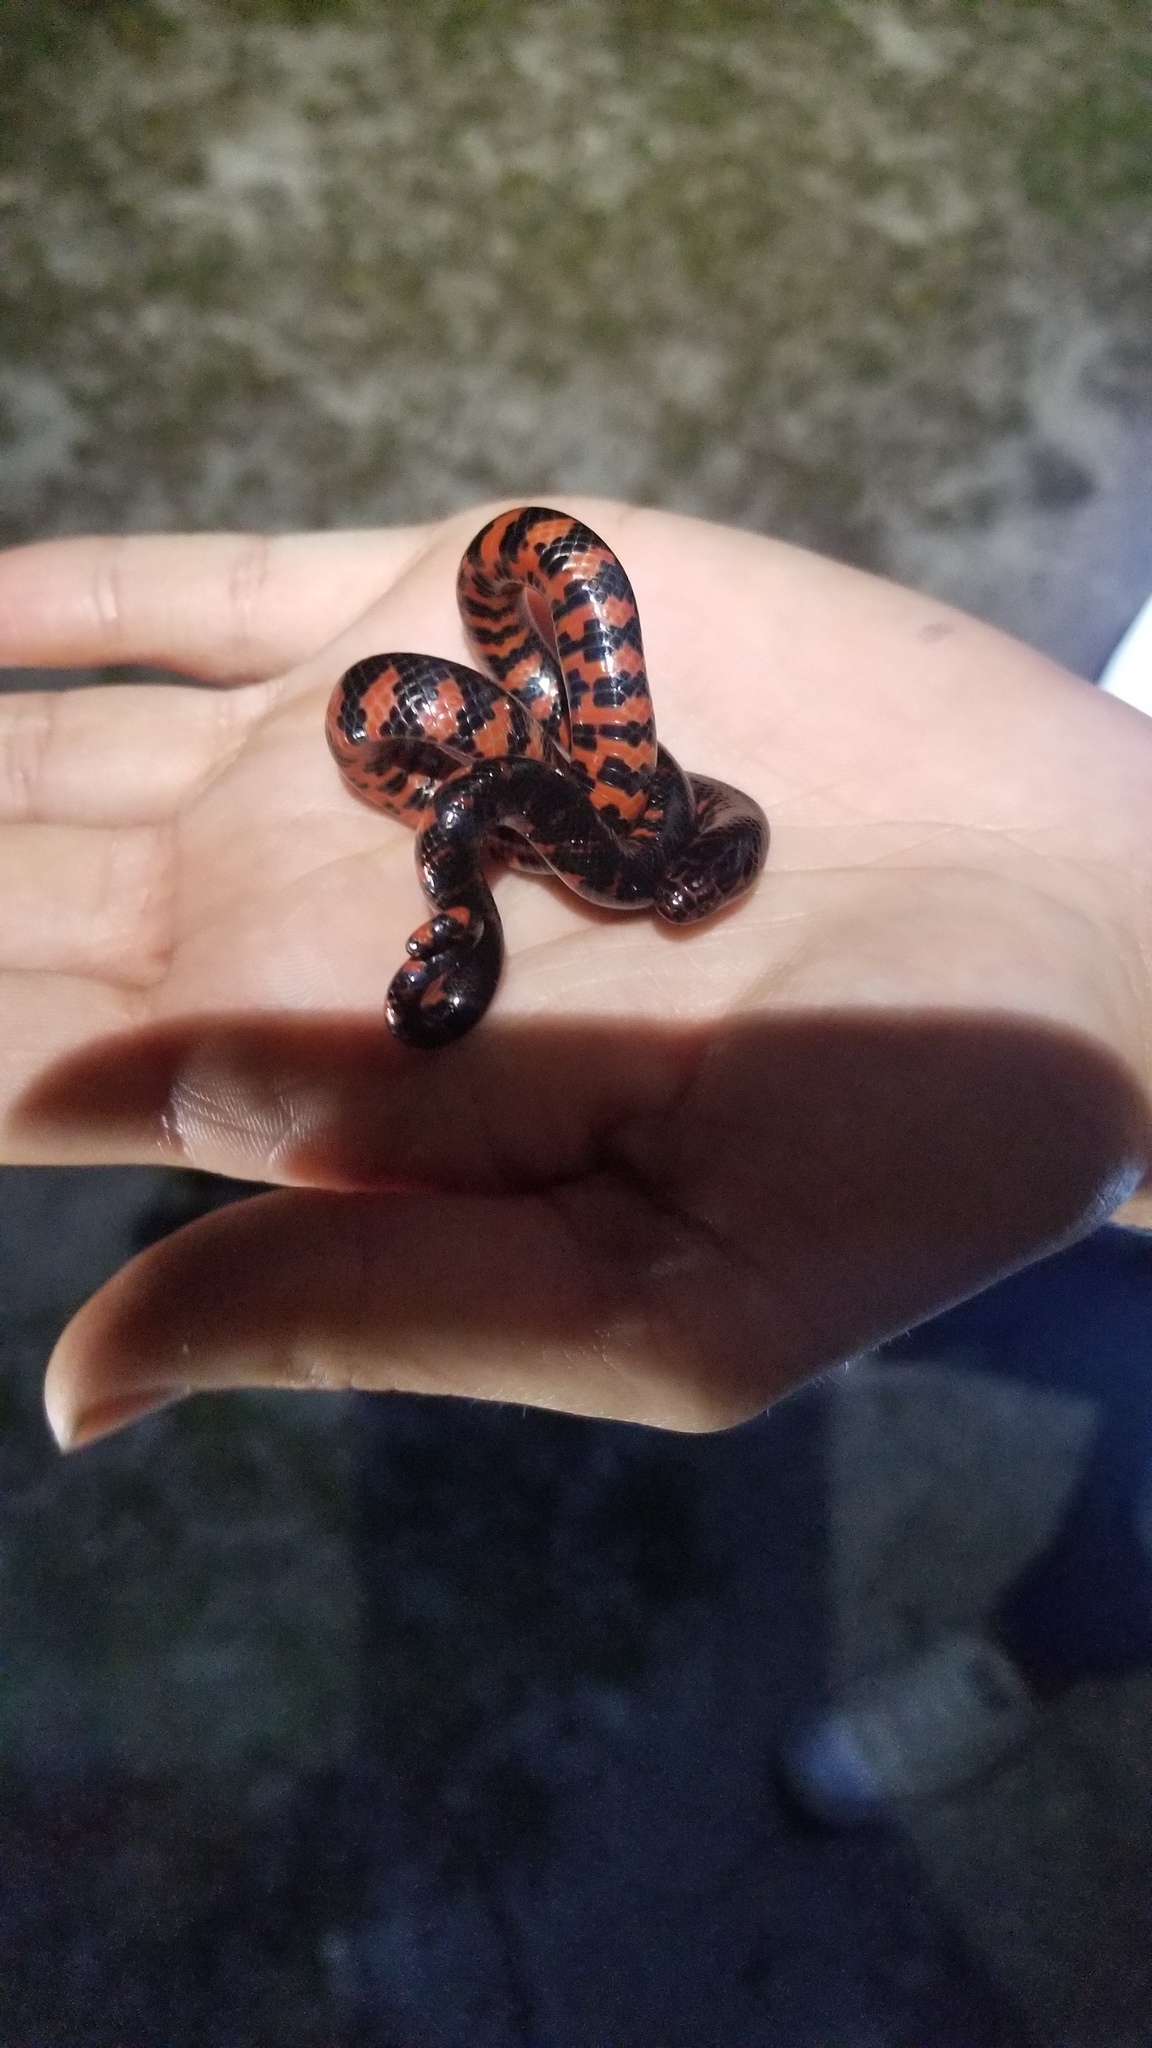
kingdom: Animalia
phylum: Chordata
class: Squamata
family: Colubridae
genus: Farancia
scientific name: Farancia abacura
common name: Mud snake
